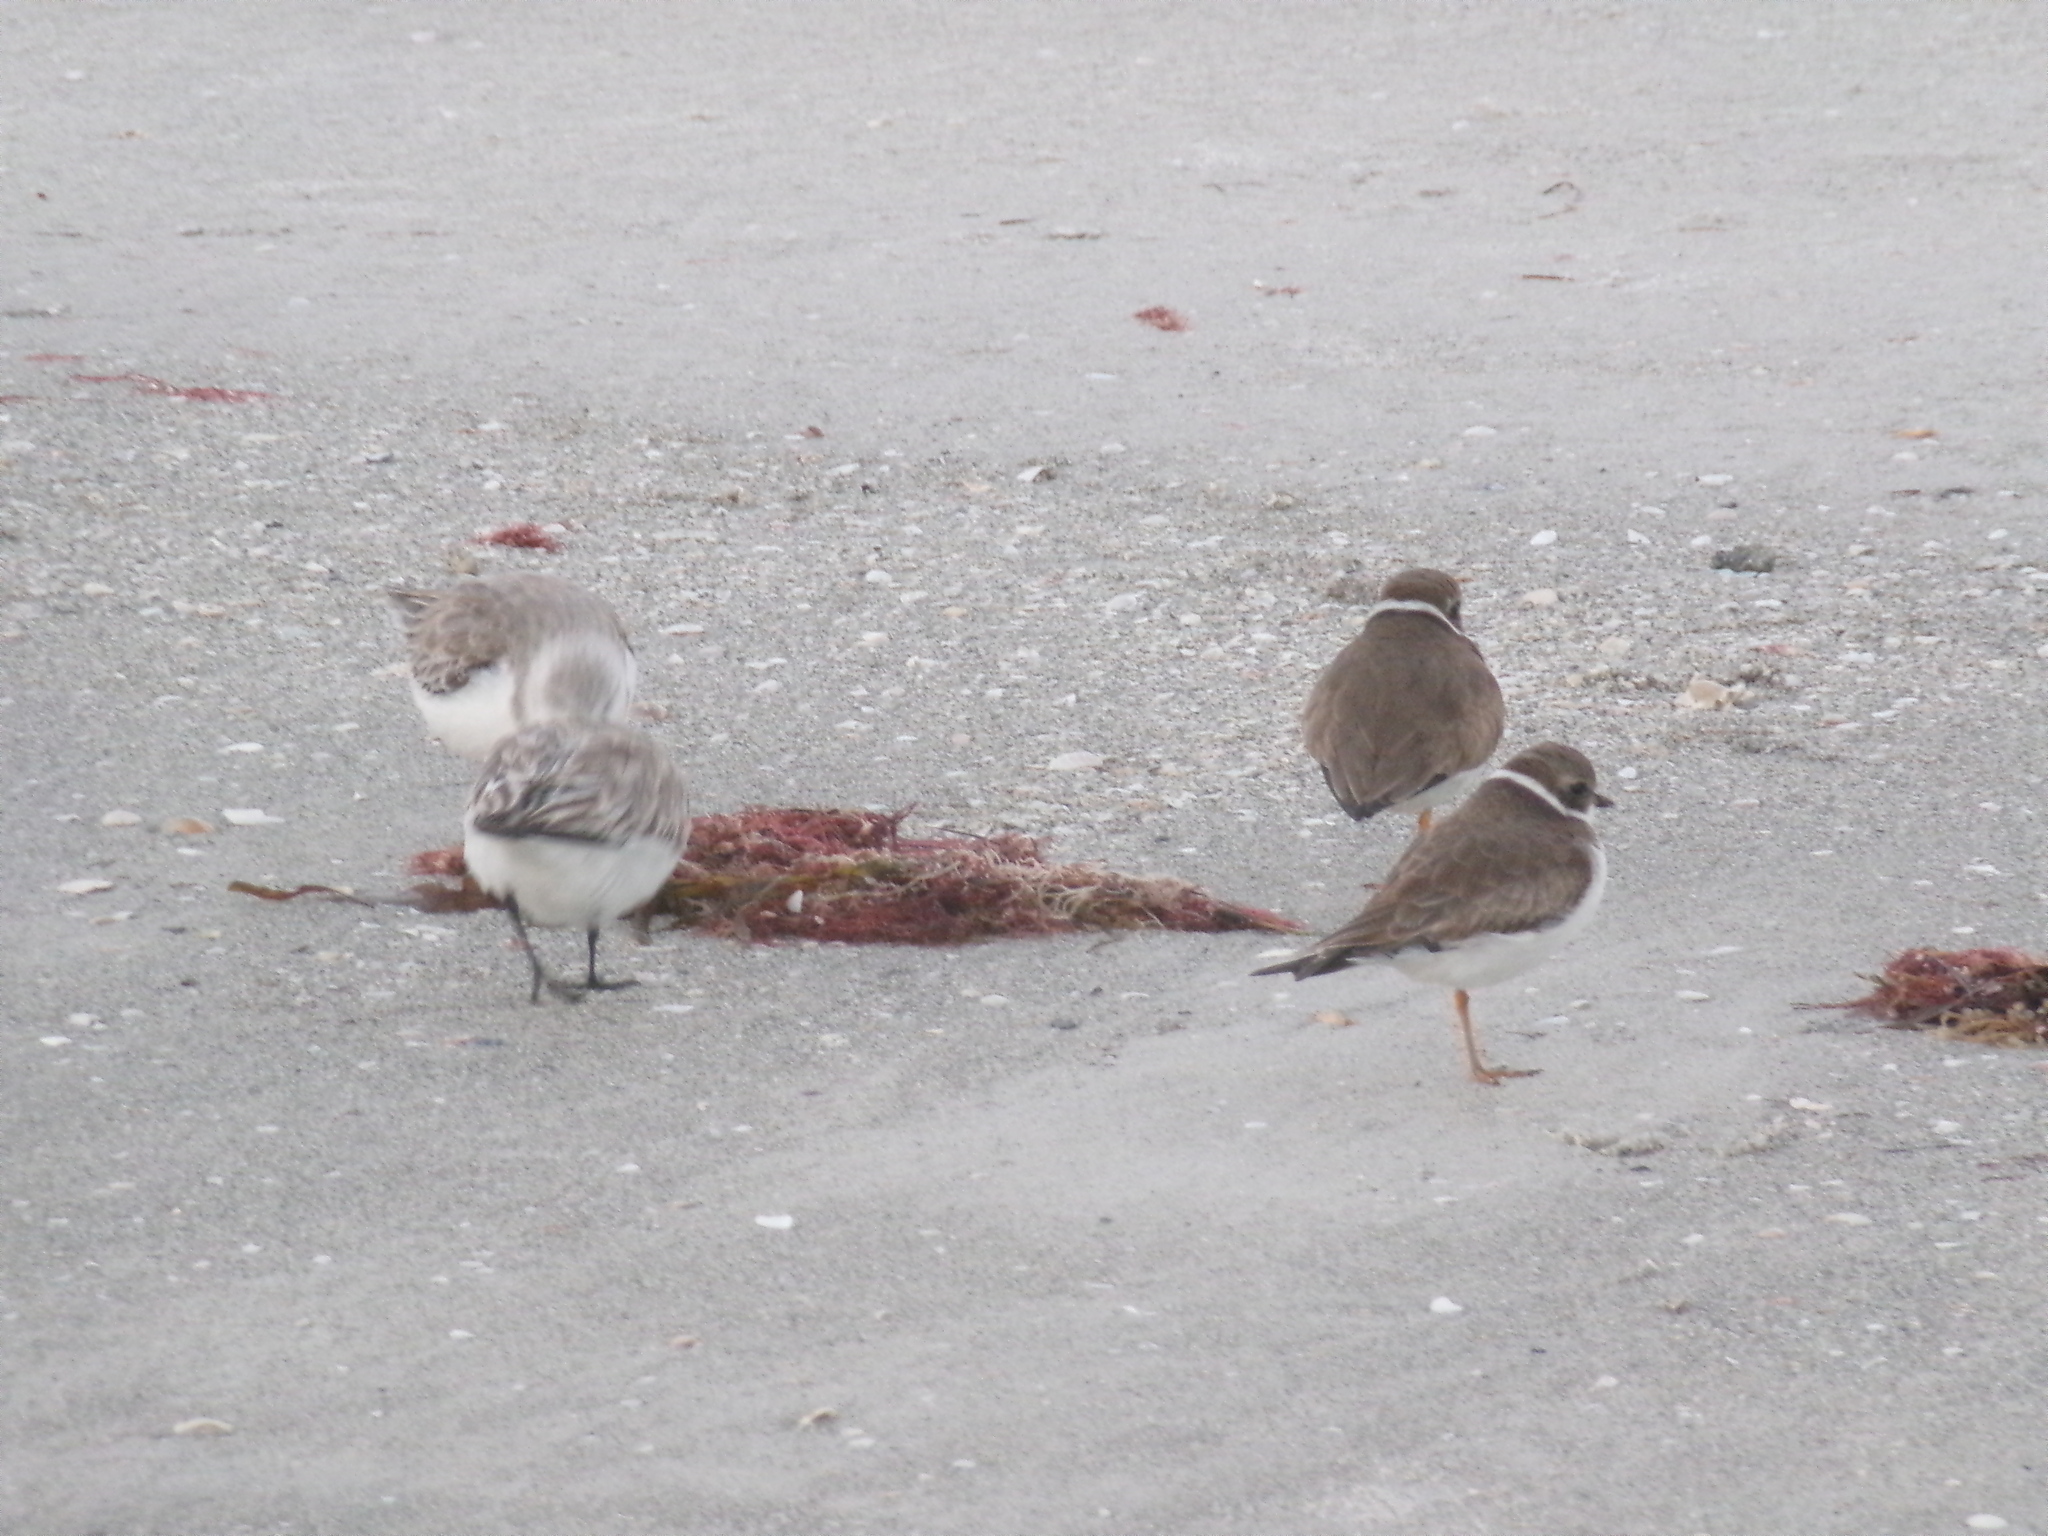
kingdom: Animalia
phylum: Chordata
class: Aves
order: Charadriiformes
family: Charadriidae
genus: Charadrius
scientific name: Charadrius semipalmatus
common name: Semipalmated plover
